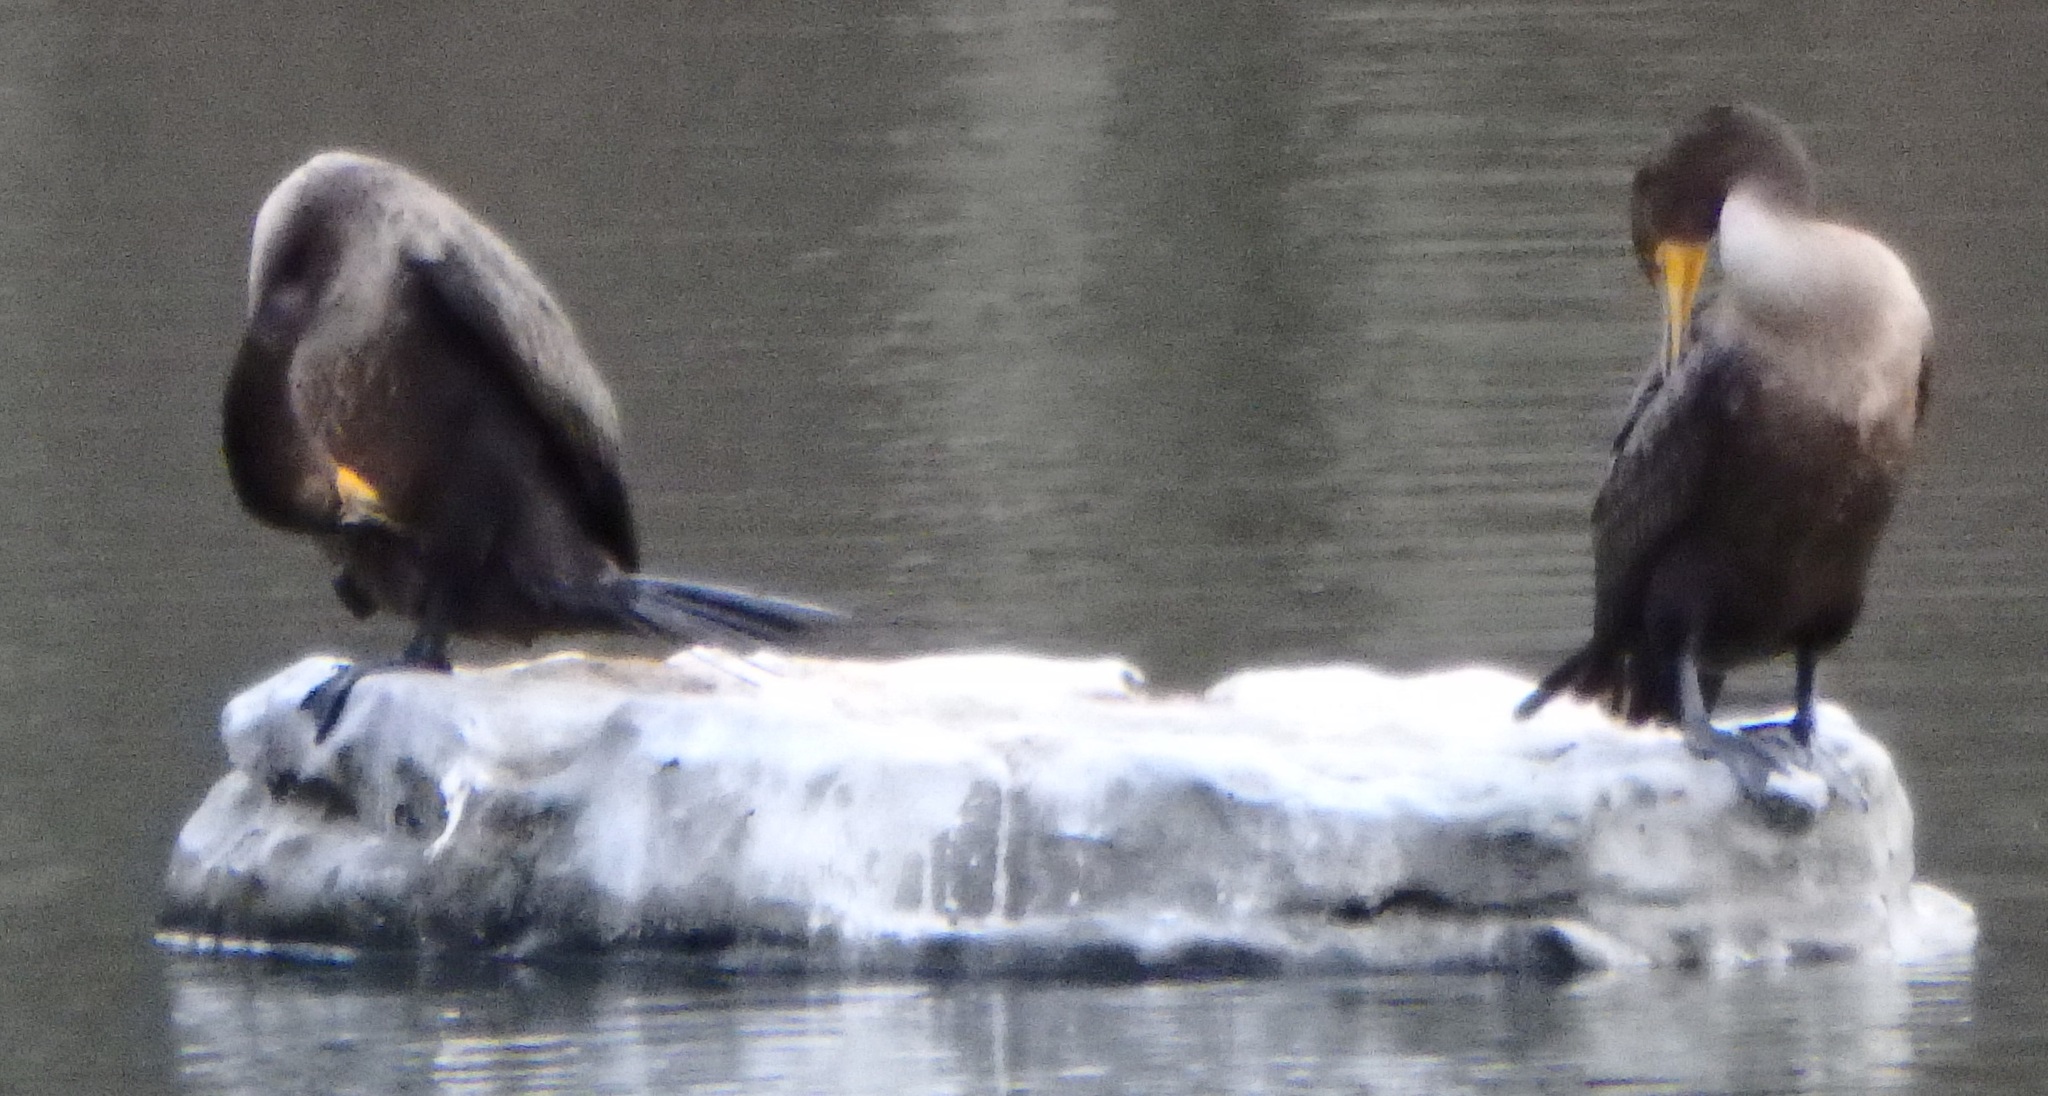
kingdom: Animalia
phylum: Chordata
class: Aves
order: Suliformes
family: Phalacrocoracidae
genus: Phalacrocorax
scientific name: Phalacrocorax auritus
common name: Double-crested cormorant
